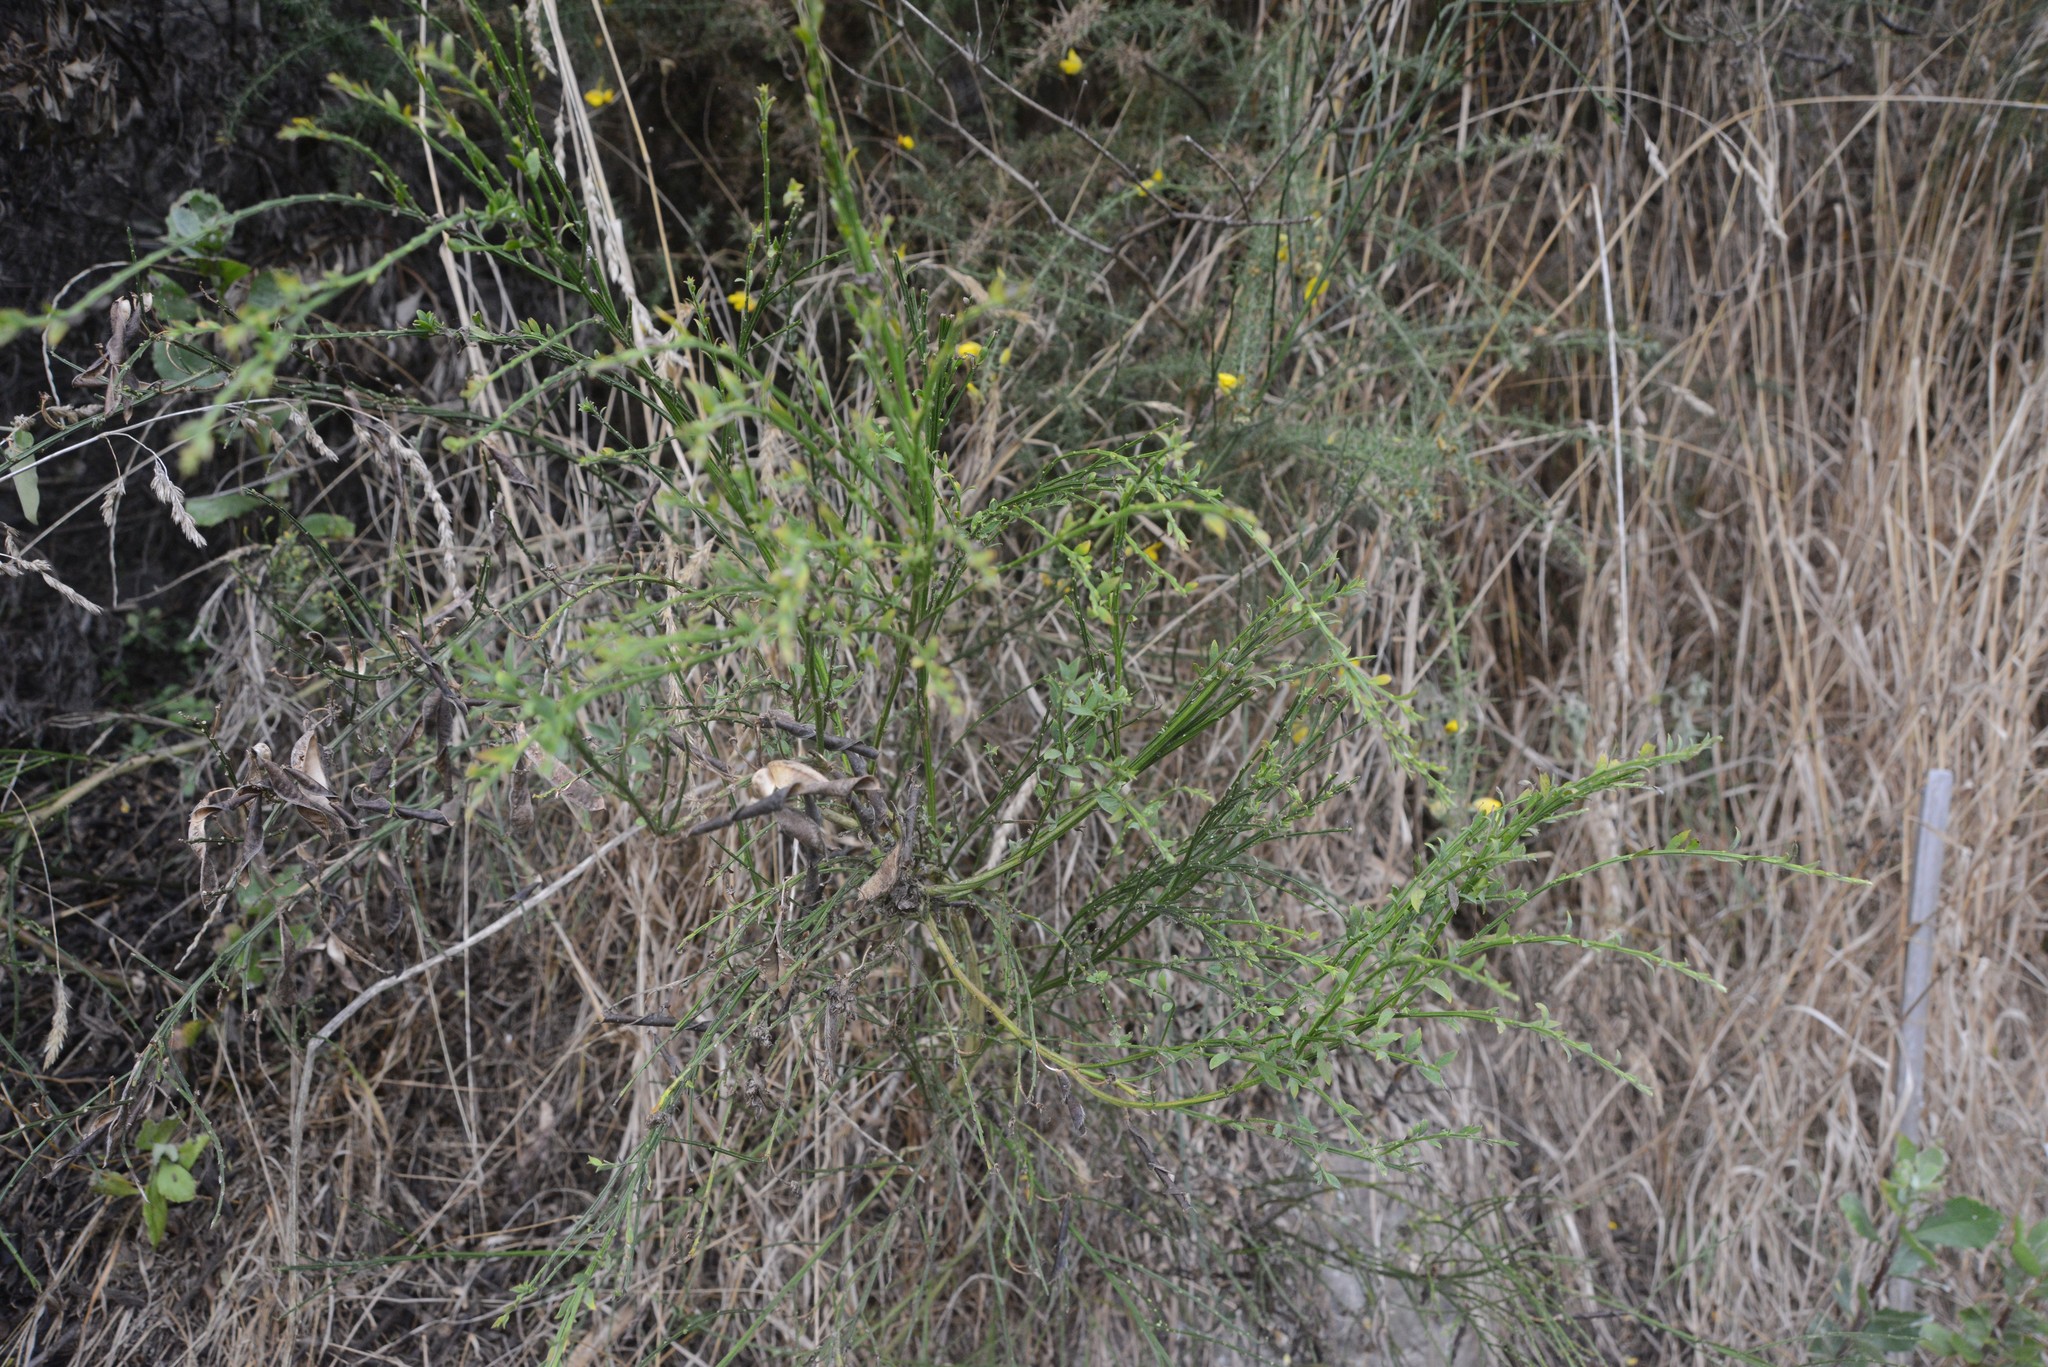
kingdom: Plantae
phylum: Tracheophyta
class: Magnoliopsida
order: Fabales
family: Fabaceae
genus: Cytisus
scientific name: Cytisus scoparius
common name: Scotch broom
